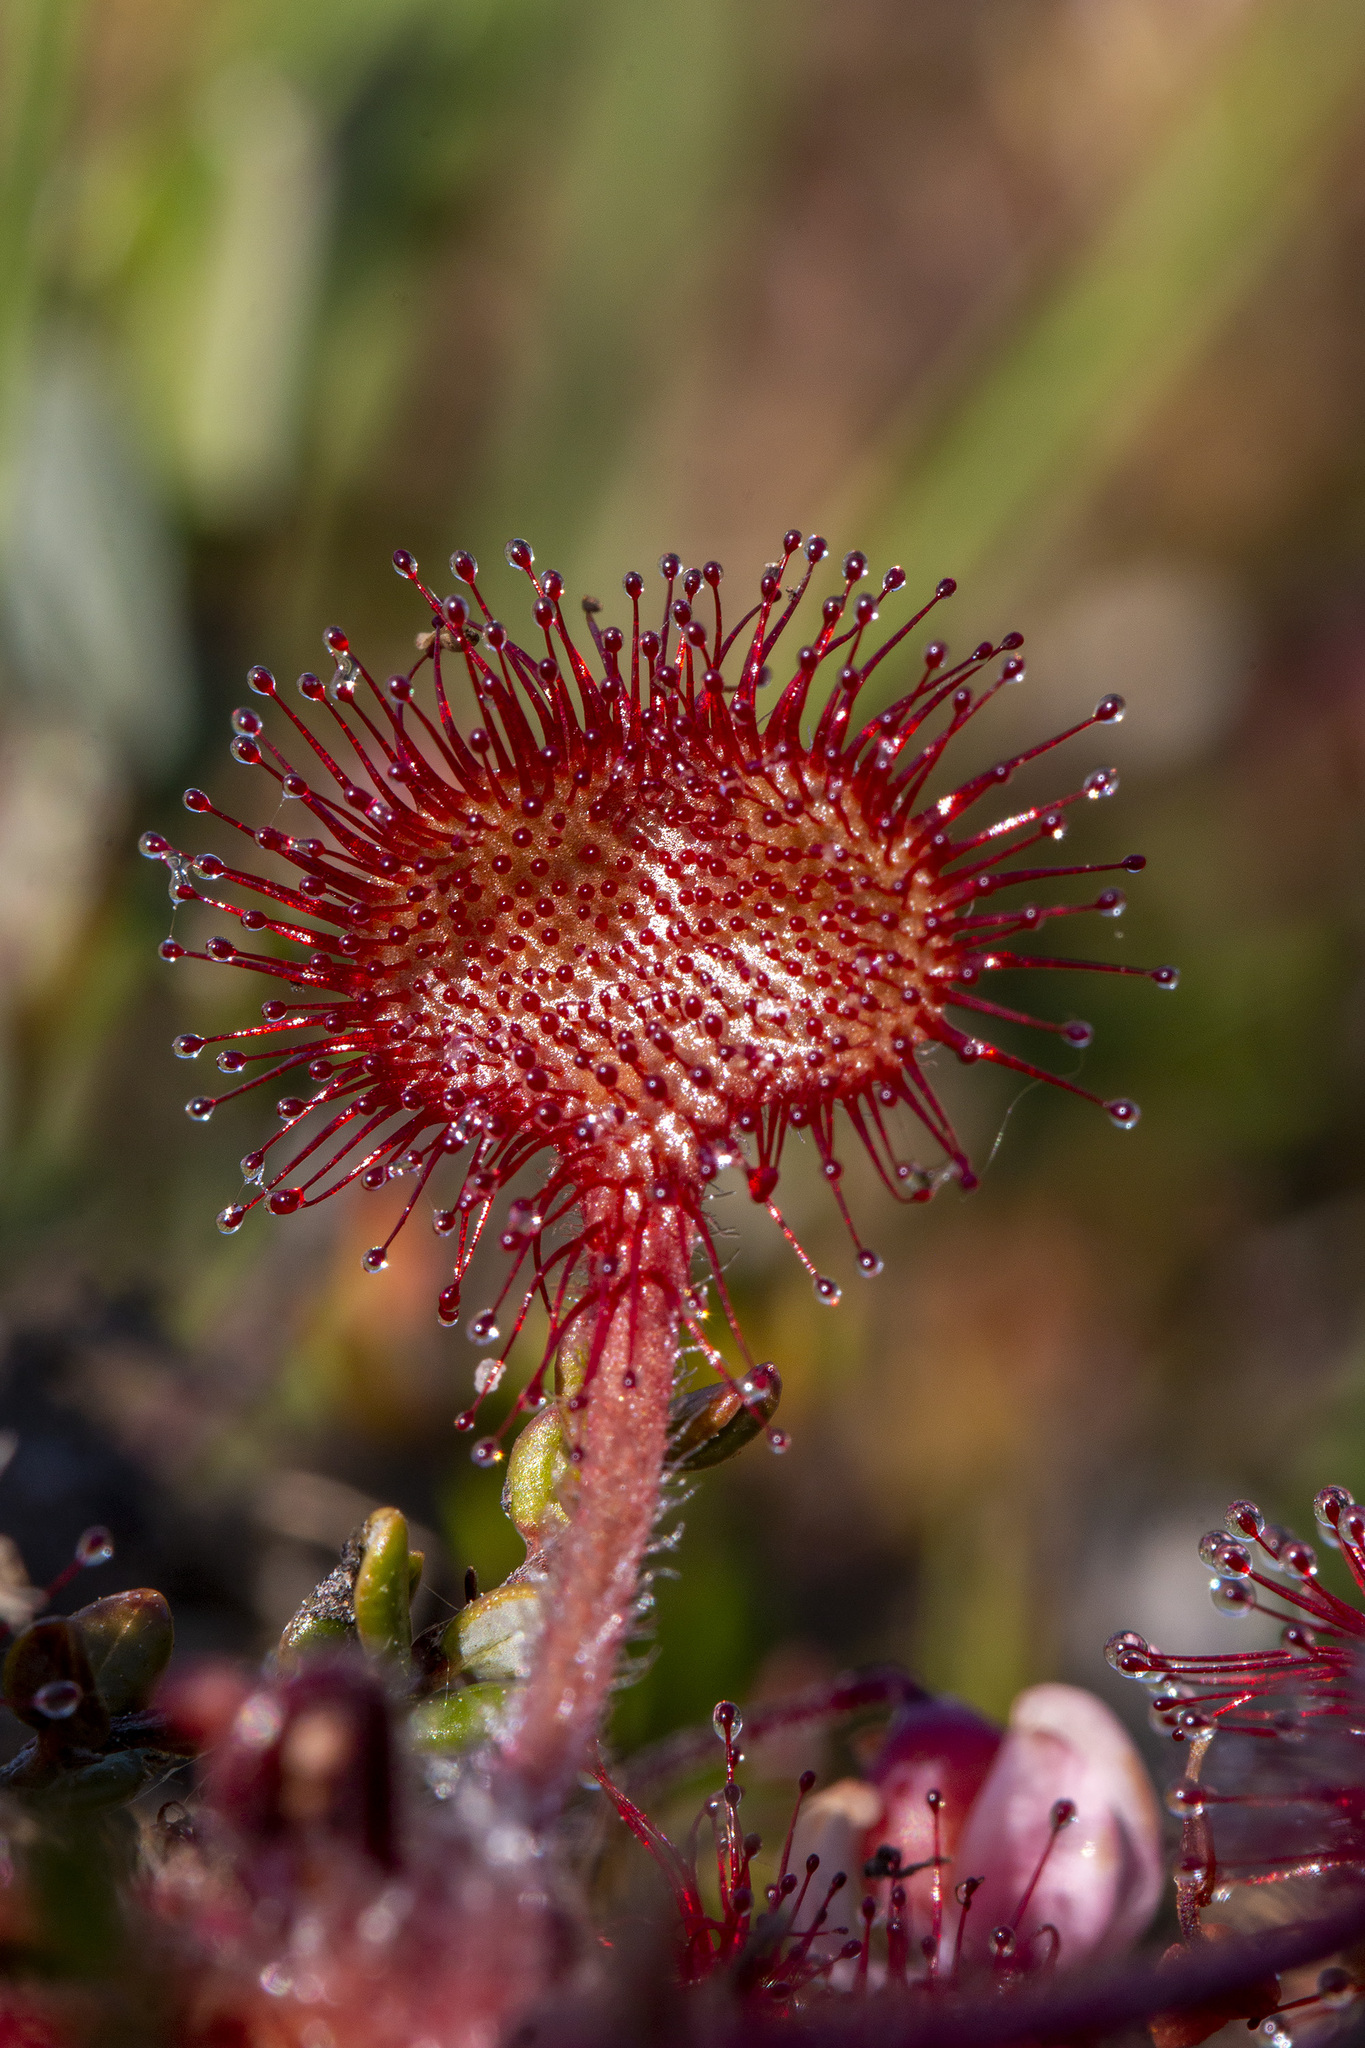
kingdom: Plantae
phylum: Tracheophyta
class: Magnoliopsida
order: Caryophyllales
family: Droseraceae
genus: Drosera
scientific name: Drosera rotundifolia
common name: Round-leaved sundew
